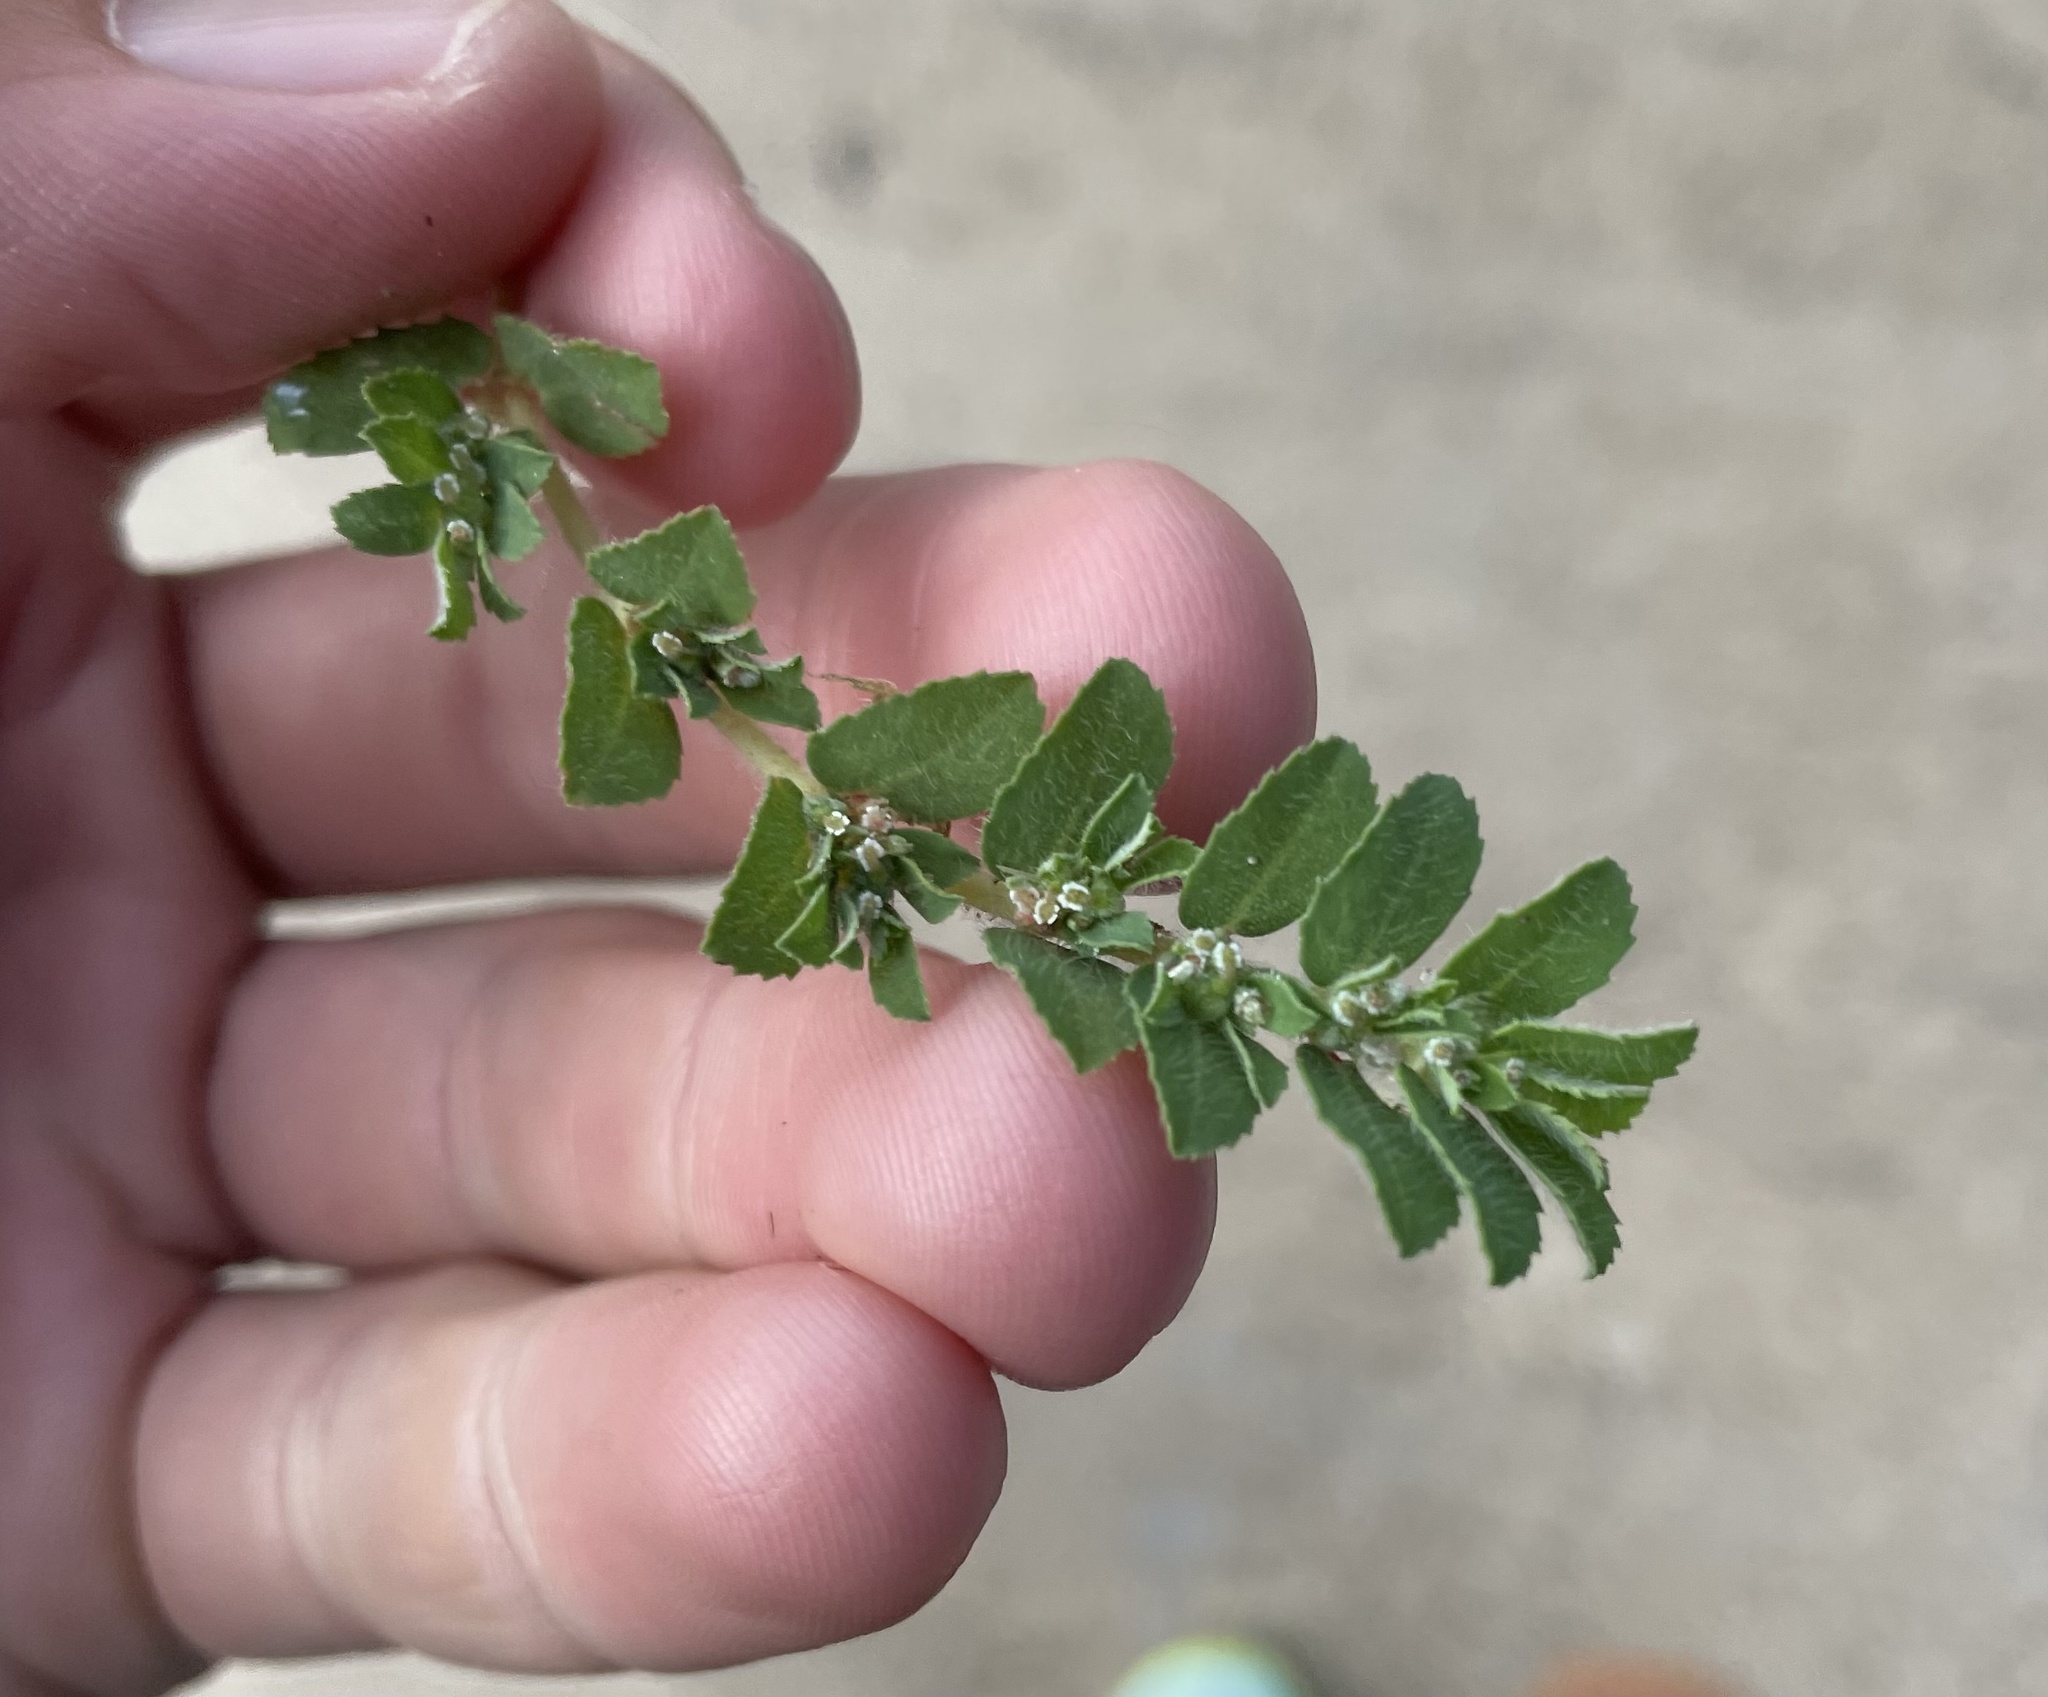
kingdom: Plantae
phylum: Tracheophyta
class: Magnoliopsida
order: Malpighiales
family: Euphorbiaceae
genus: Euphorbia
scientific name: Euphorbia stictospora
